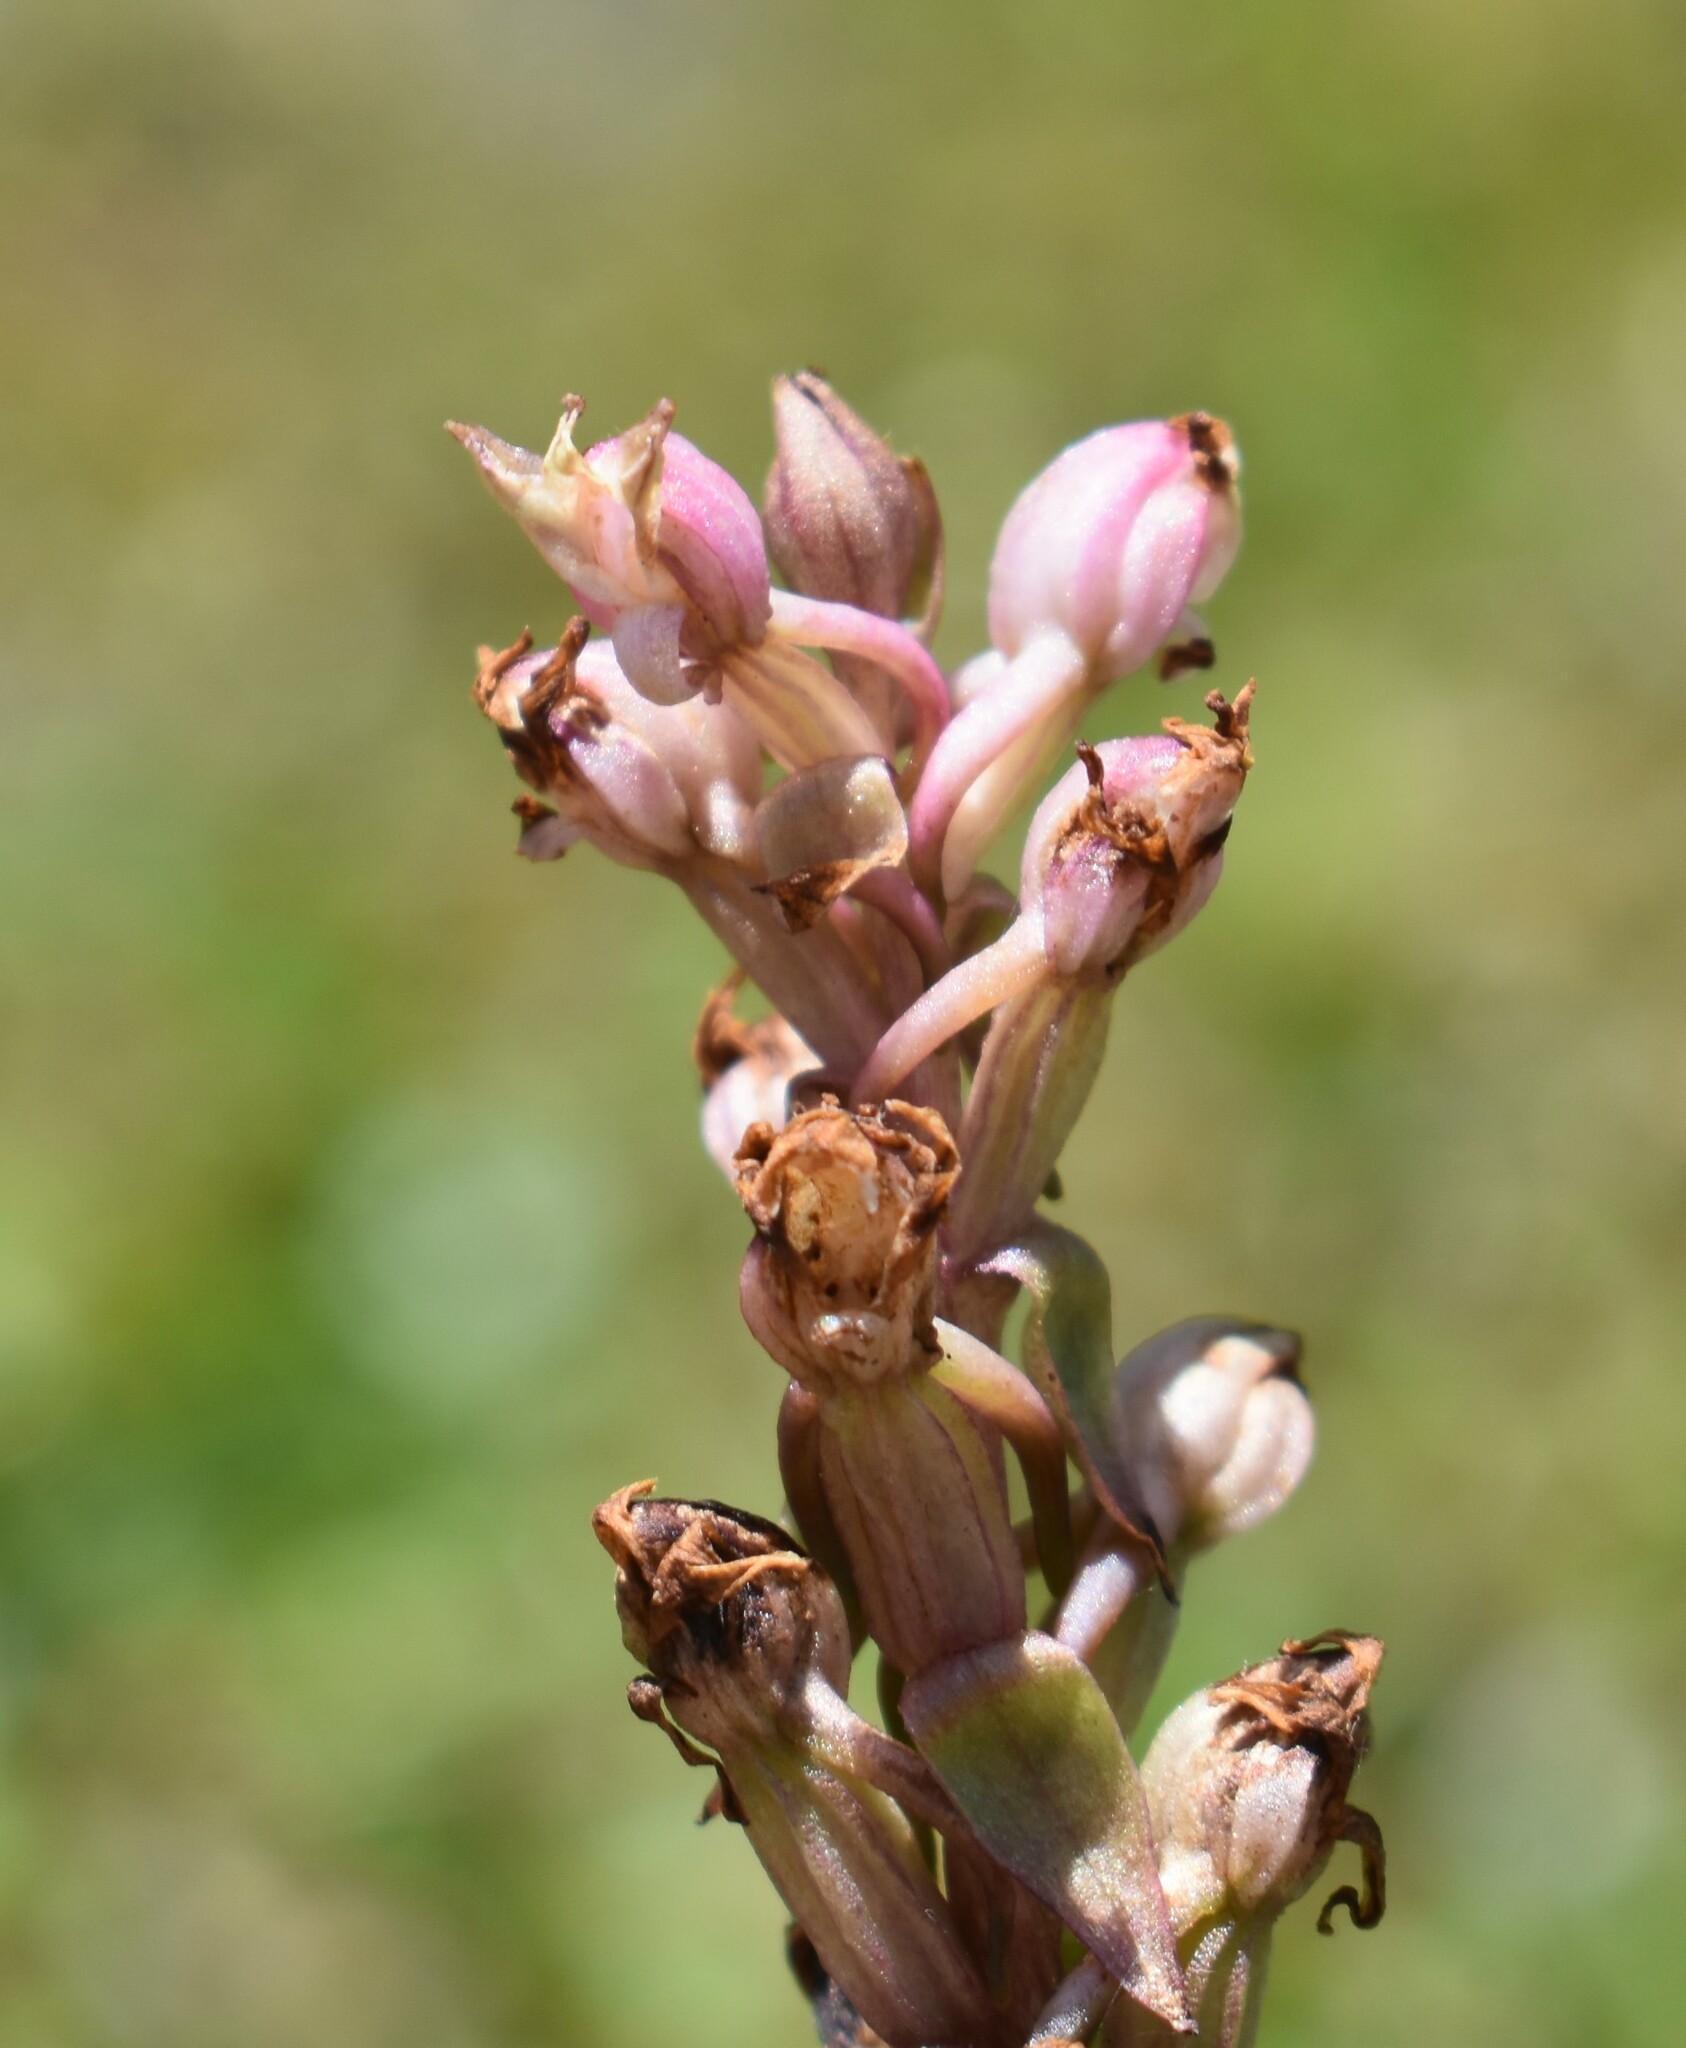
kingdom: Plantae
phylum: Tracheophyta
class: Liliopsida
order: Asparagales
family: Orchidaceae
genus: Satyrium
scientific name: Satyrium ligulatum
